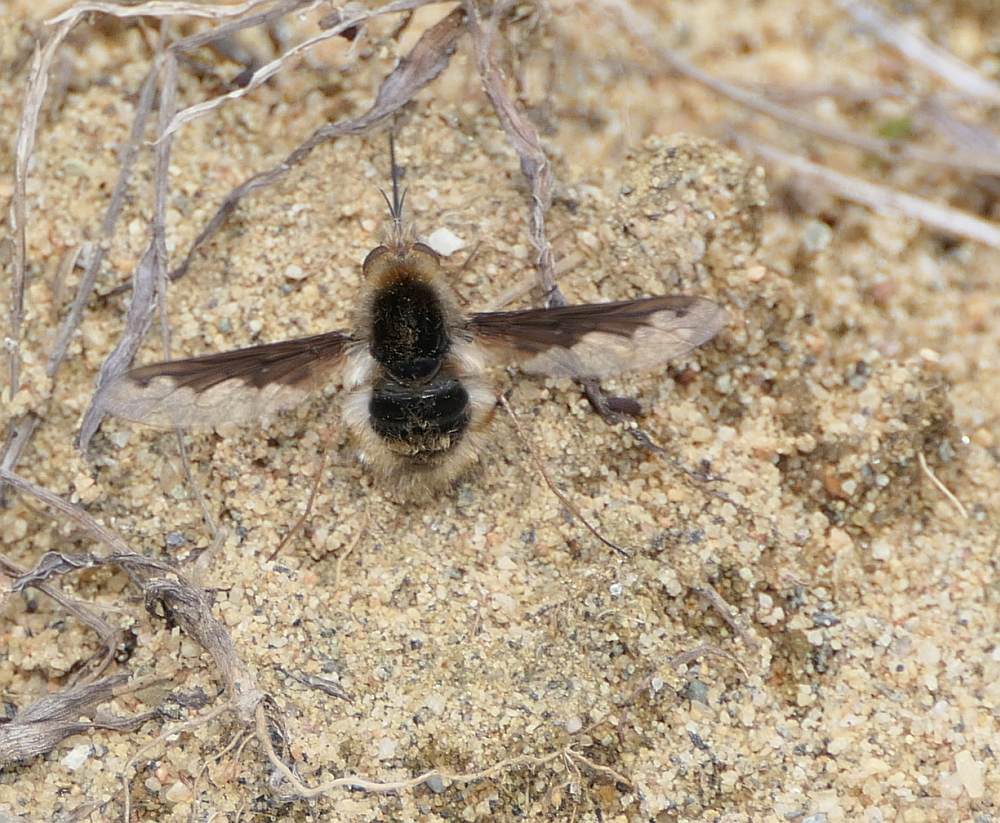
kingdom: Animalia
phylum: Arthropoda
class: Insecta
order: Diptera
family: Bombyliidae
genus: Bombylius
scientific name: Bombylius major
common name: Bee fly
